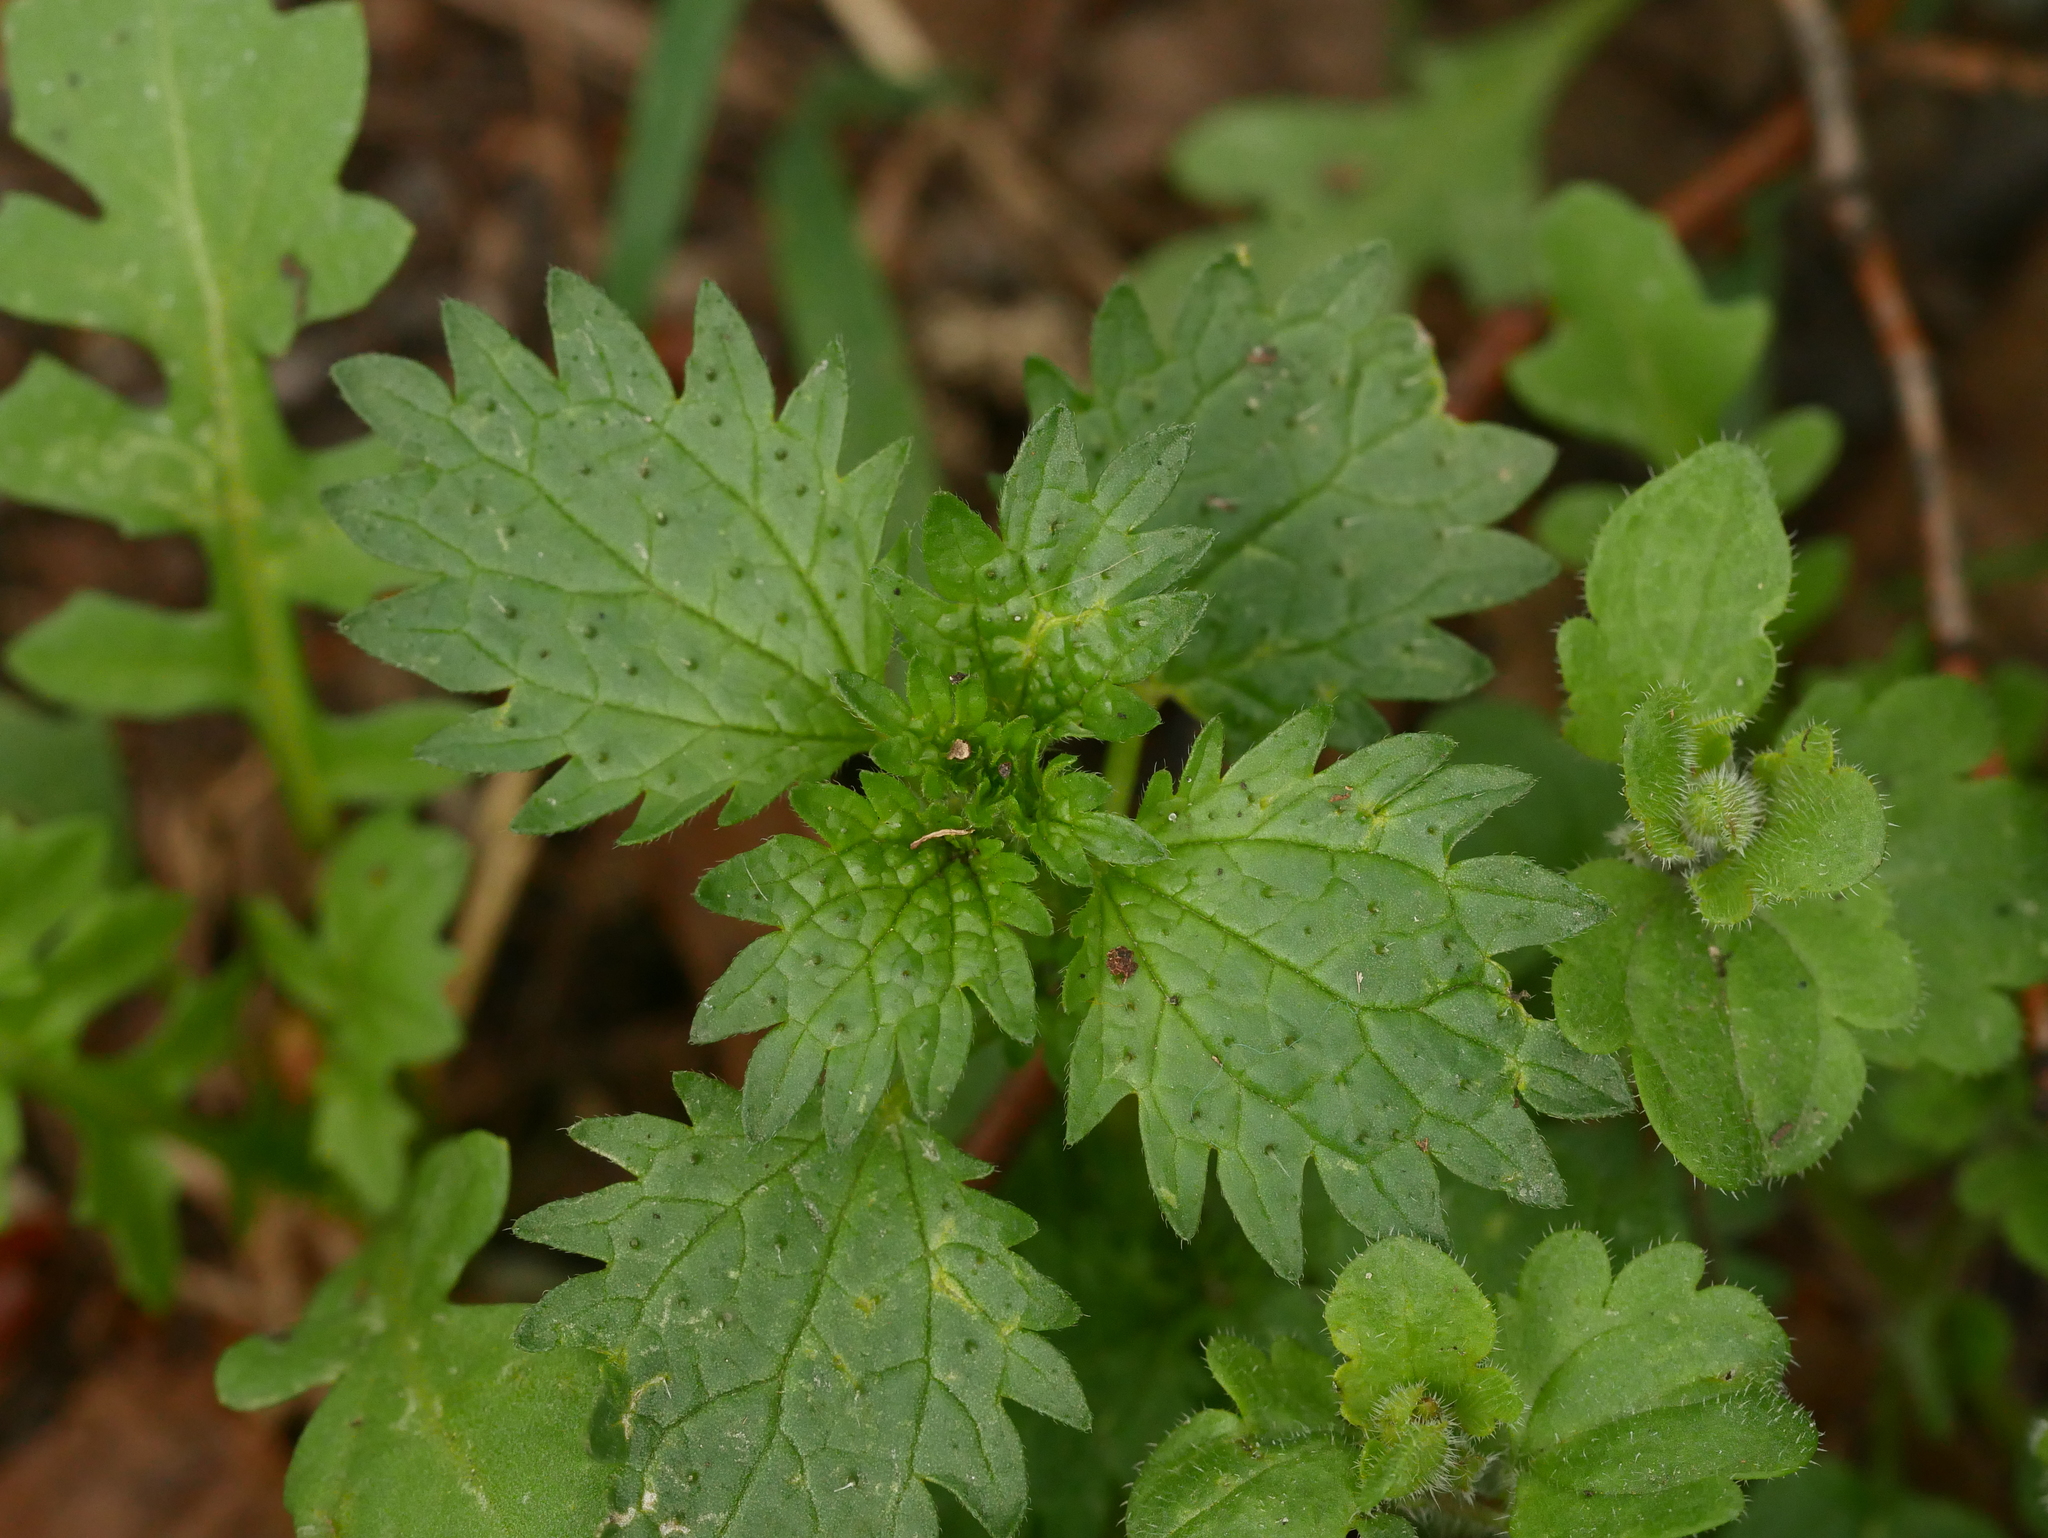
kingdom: Plantae
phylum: Tracheophyta
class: Magnoliopsida
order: Rosales
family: Urticaceae
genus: Urtica
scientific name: Urtica urens
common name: Dwarf nettle
